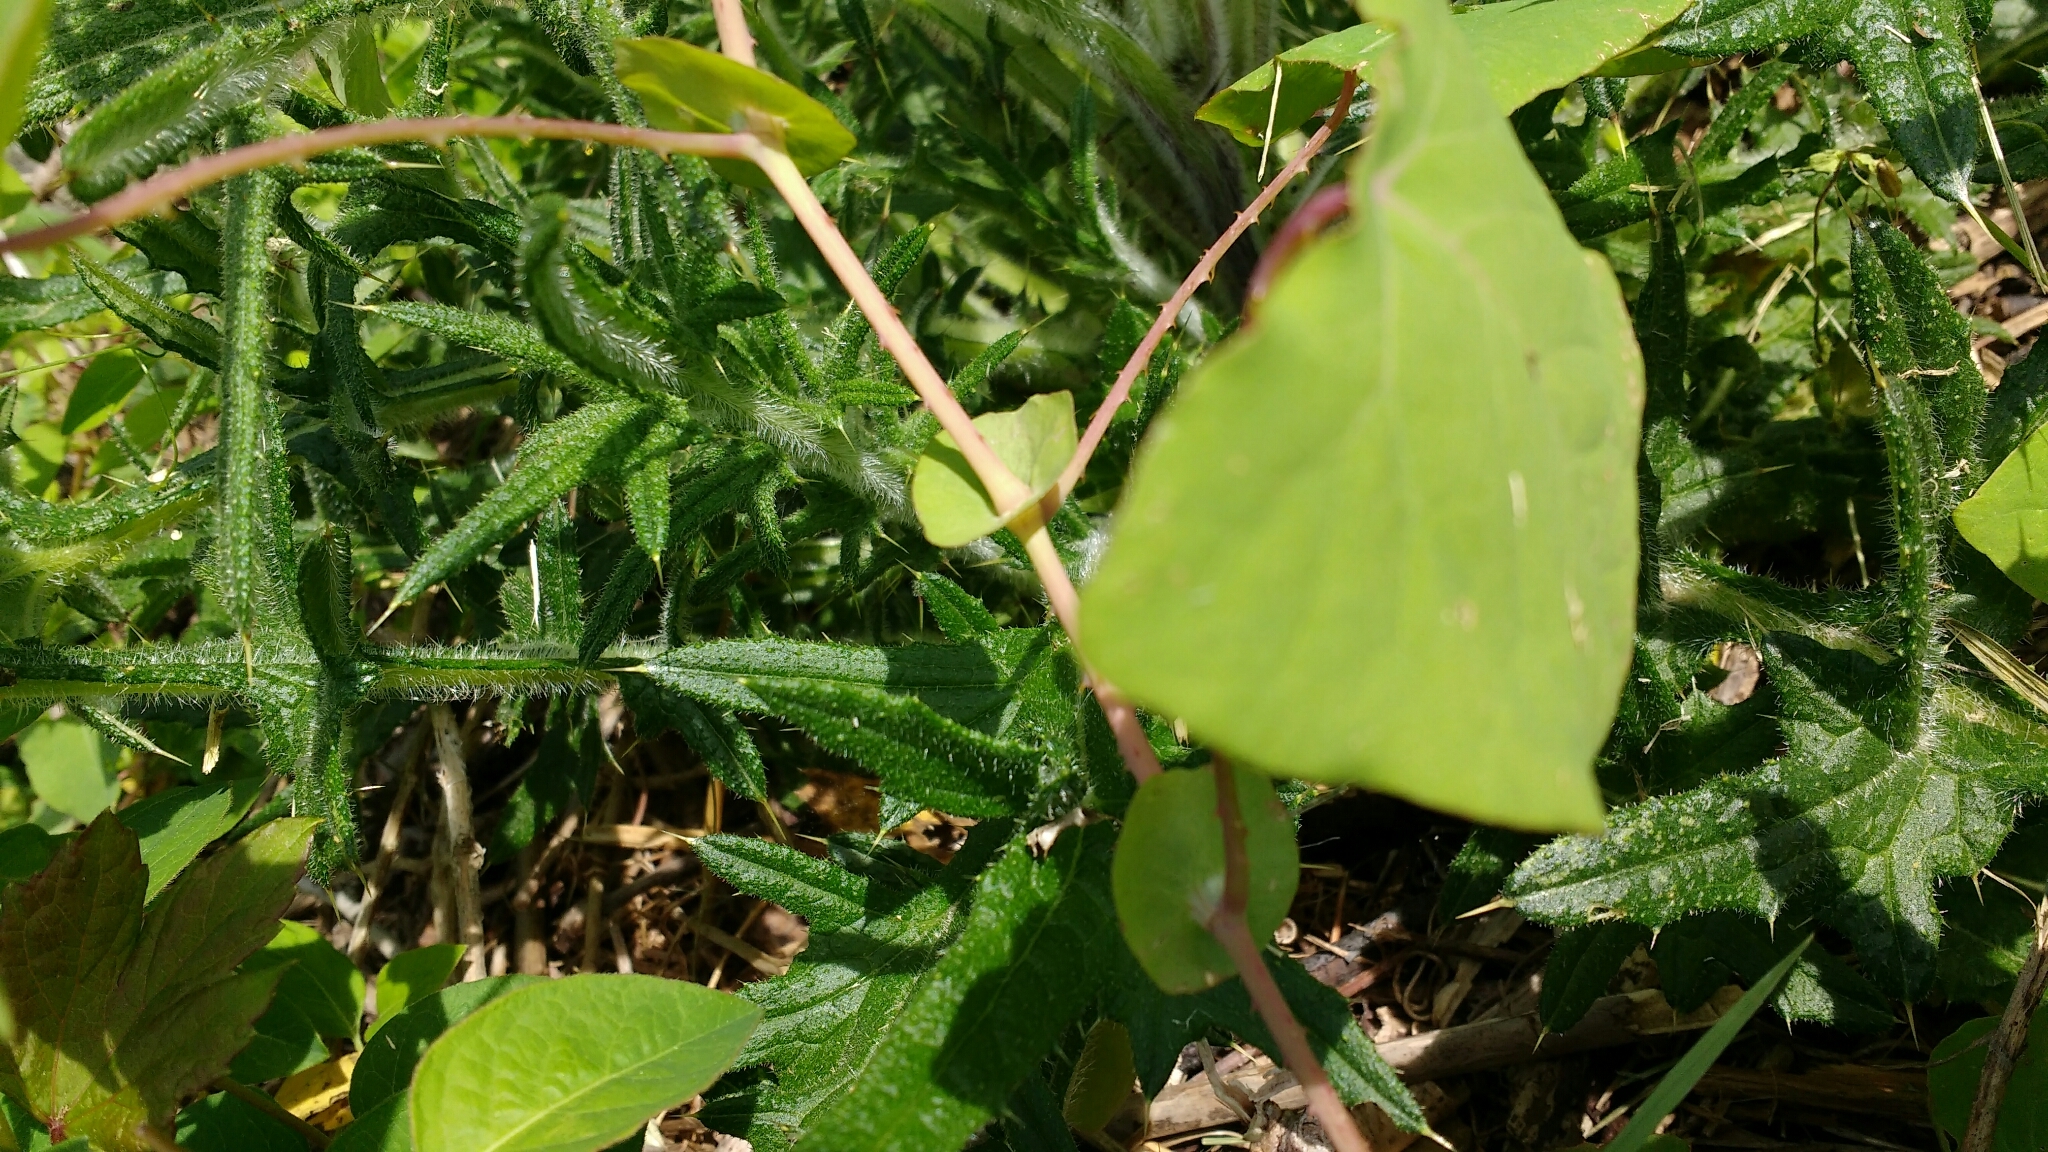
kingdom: Plantae
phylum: Tracheophyta
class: Magnoliopsida
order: Caryophyllales
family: Polygonaceae
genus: Persicaria
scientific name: Persicaria perfoliata
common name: Asiatic tearthumb
